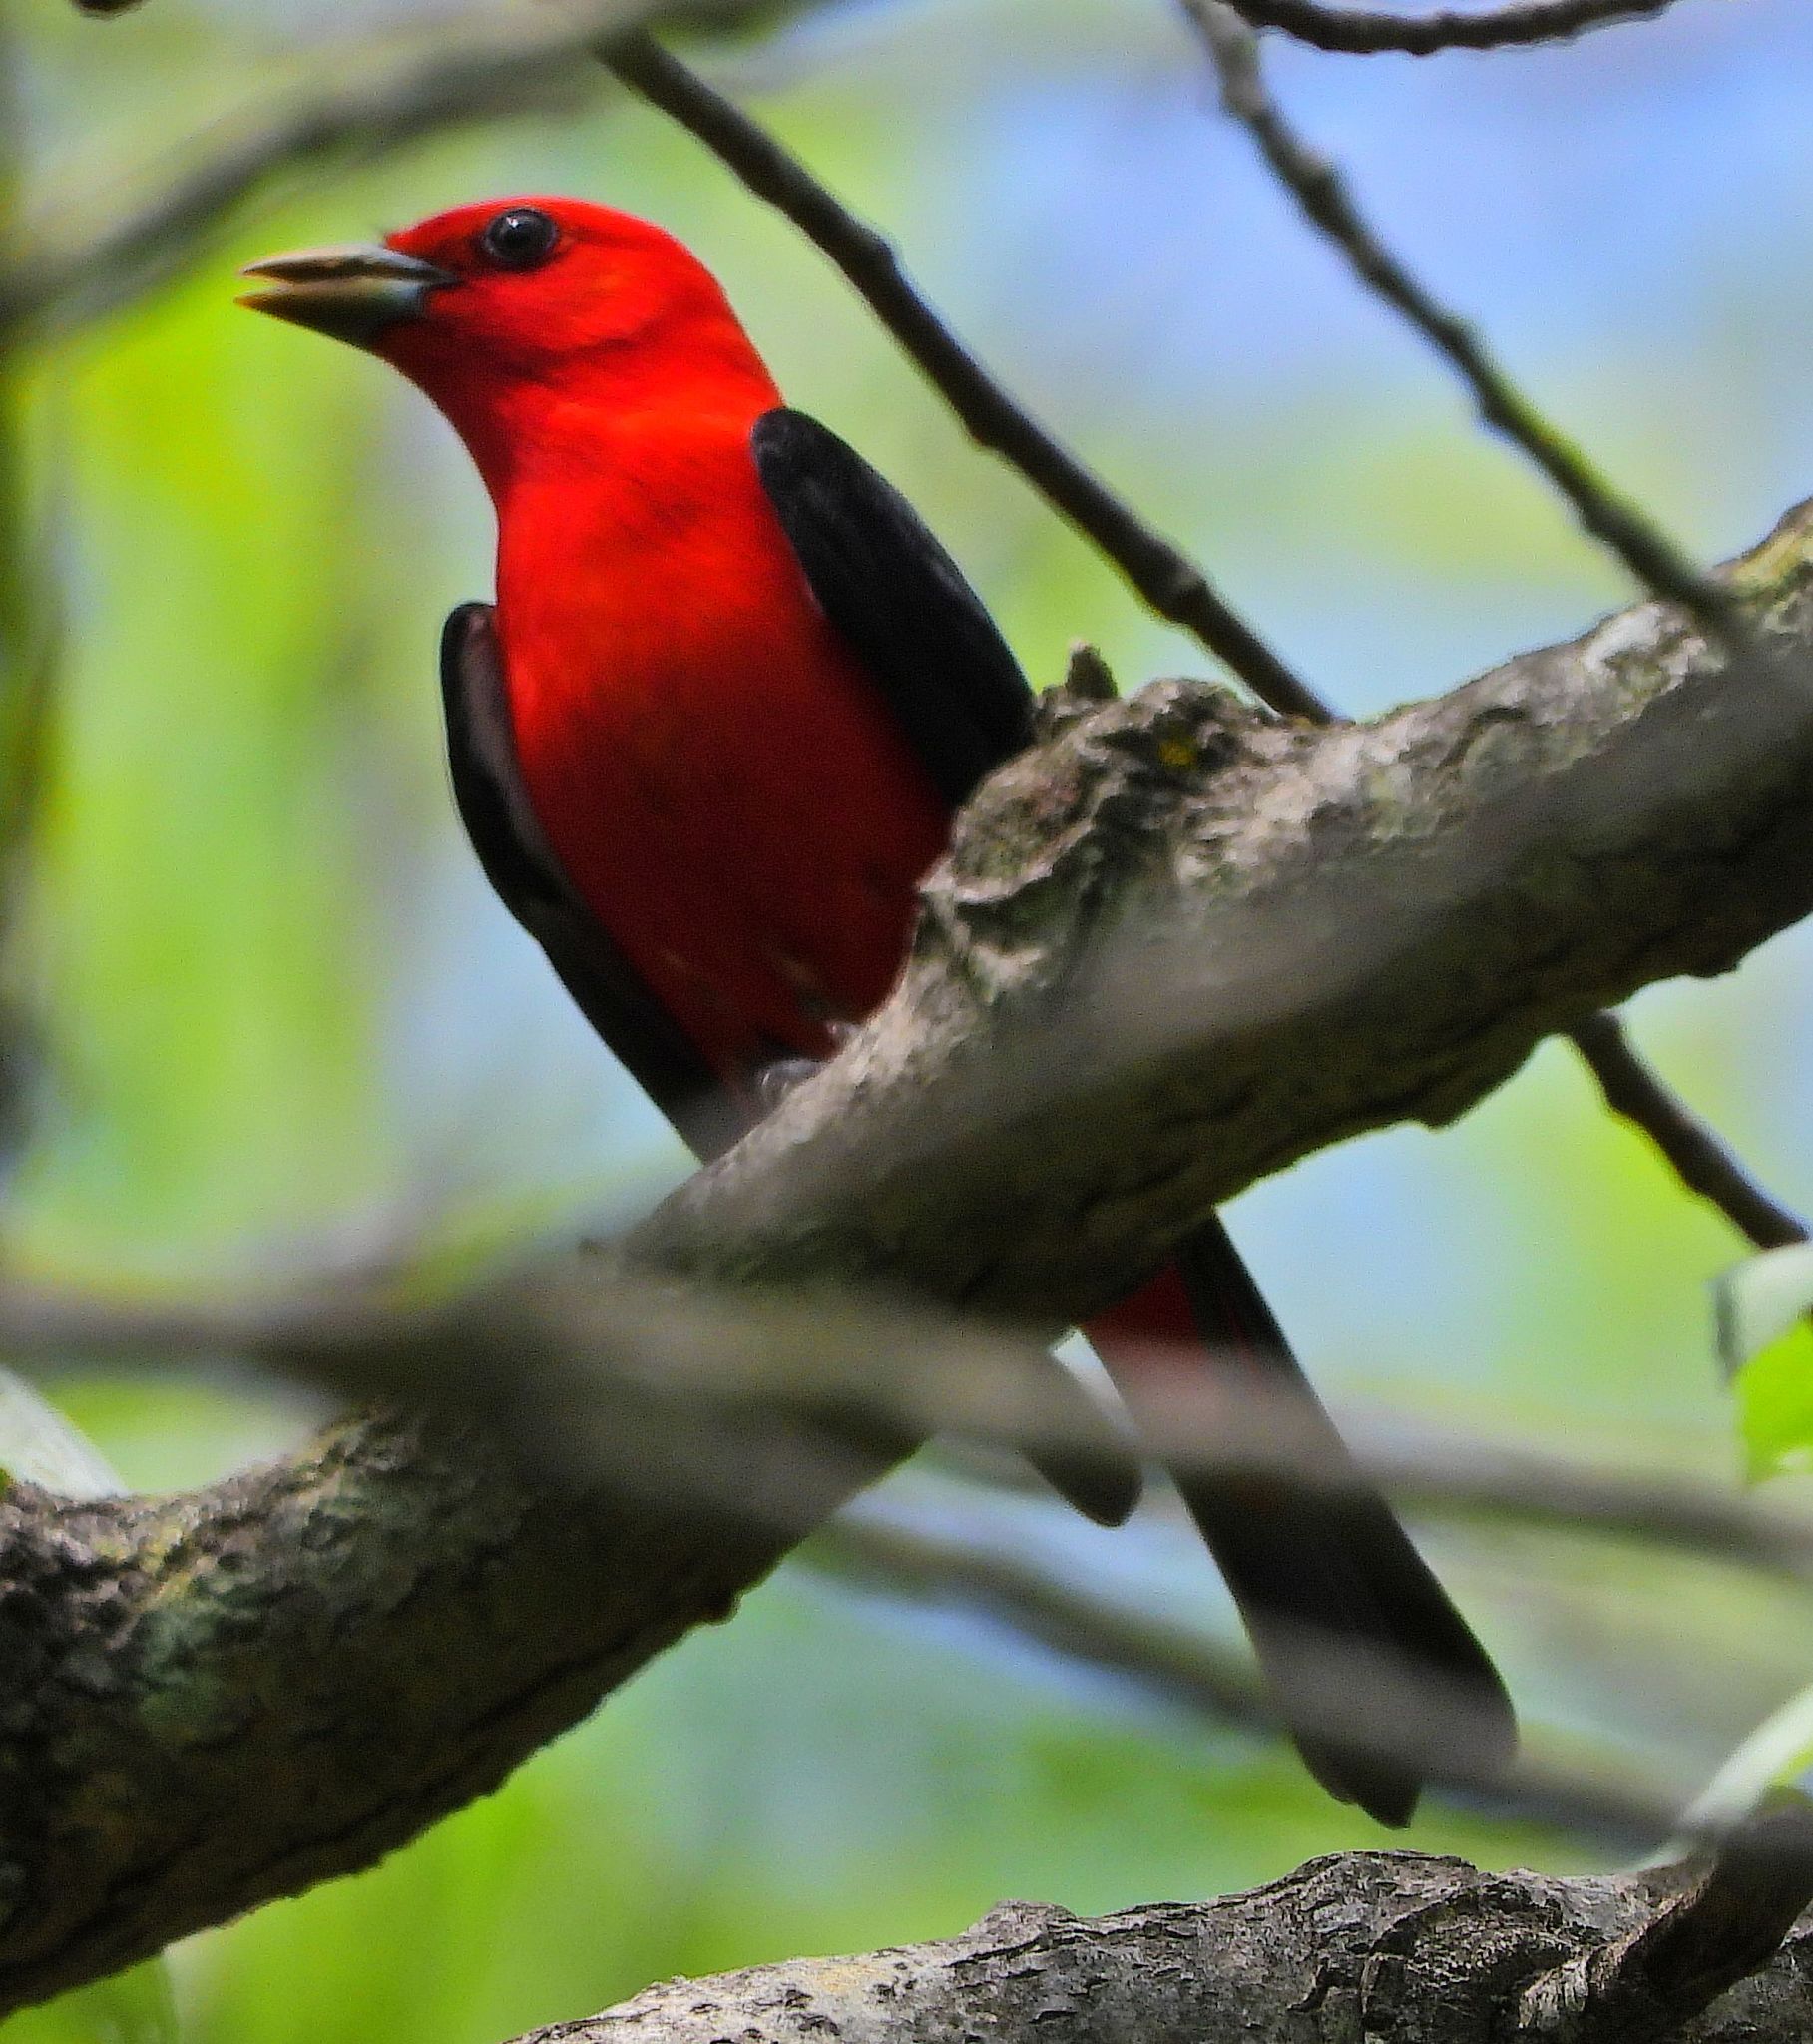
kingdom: Animalia
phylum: Chordata
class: Aves
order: Passeriformes
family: Cardinalidae
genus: Piranga
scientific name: Piranga olivacea
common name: Scarlet tanager
